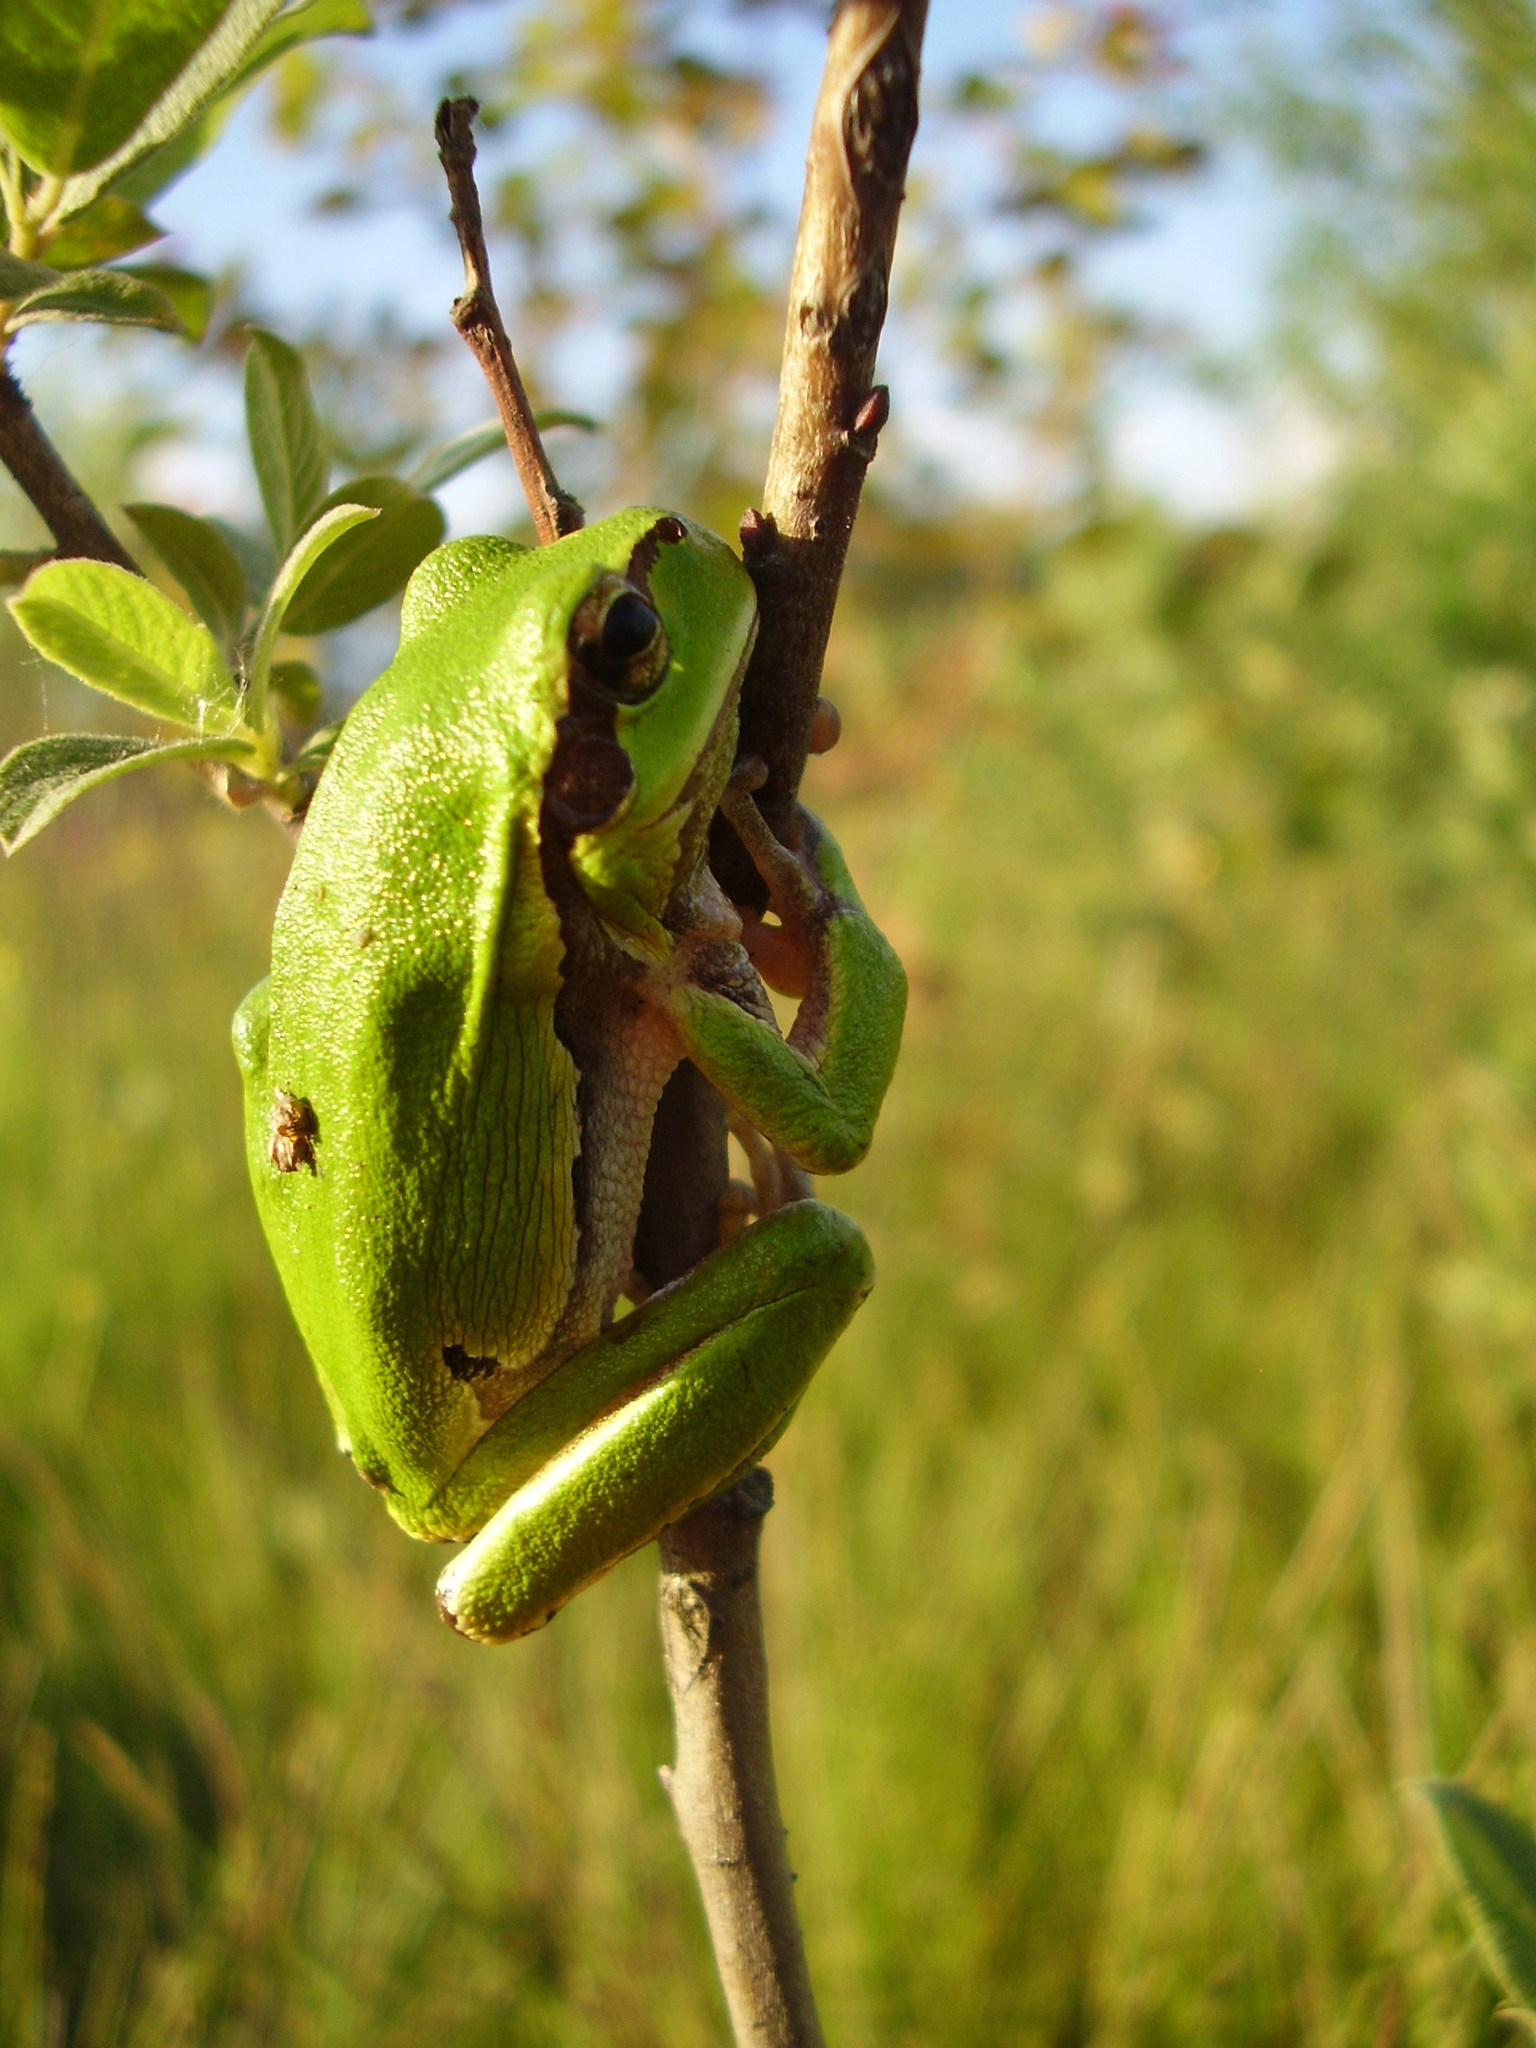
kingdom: Animalia
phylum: Chordata
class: Amphibia
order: Anura
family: Hylidae
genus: Hyla
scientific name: Hyla orientalis
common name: Caucasian treefrog
